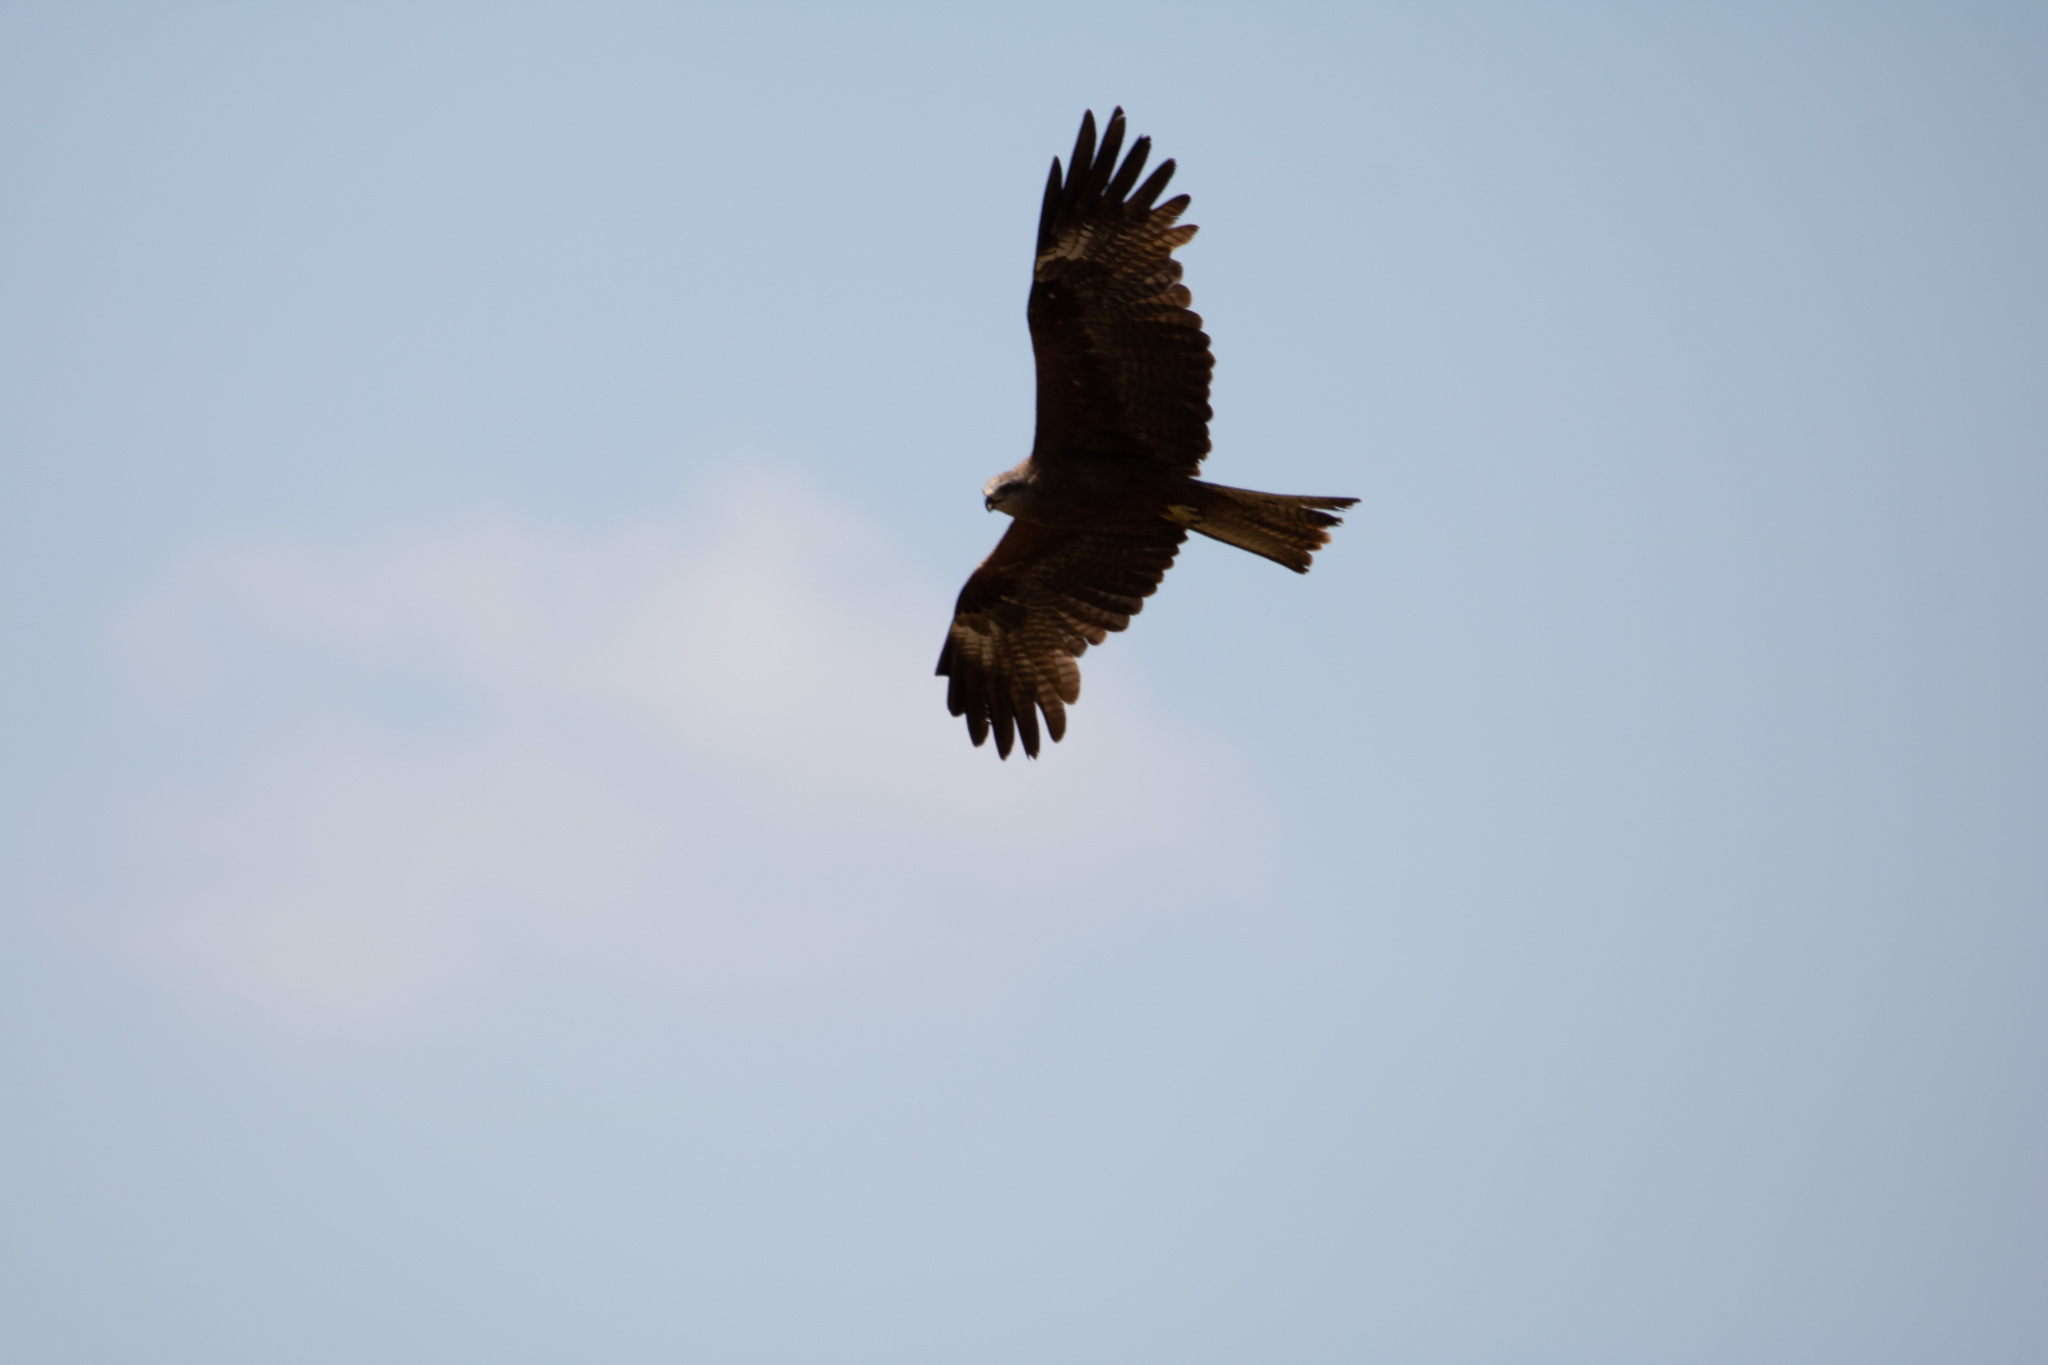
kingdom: Animalia
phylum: Chordata
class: Aves
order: Accipitriformes
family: Accipitridae
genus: Milvus
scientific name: Milvus migrans
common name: Black kite
